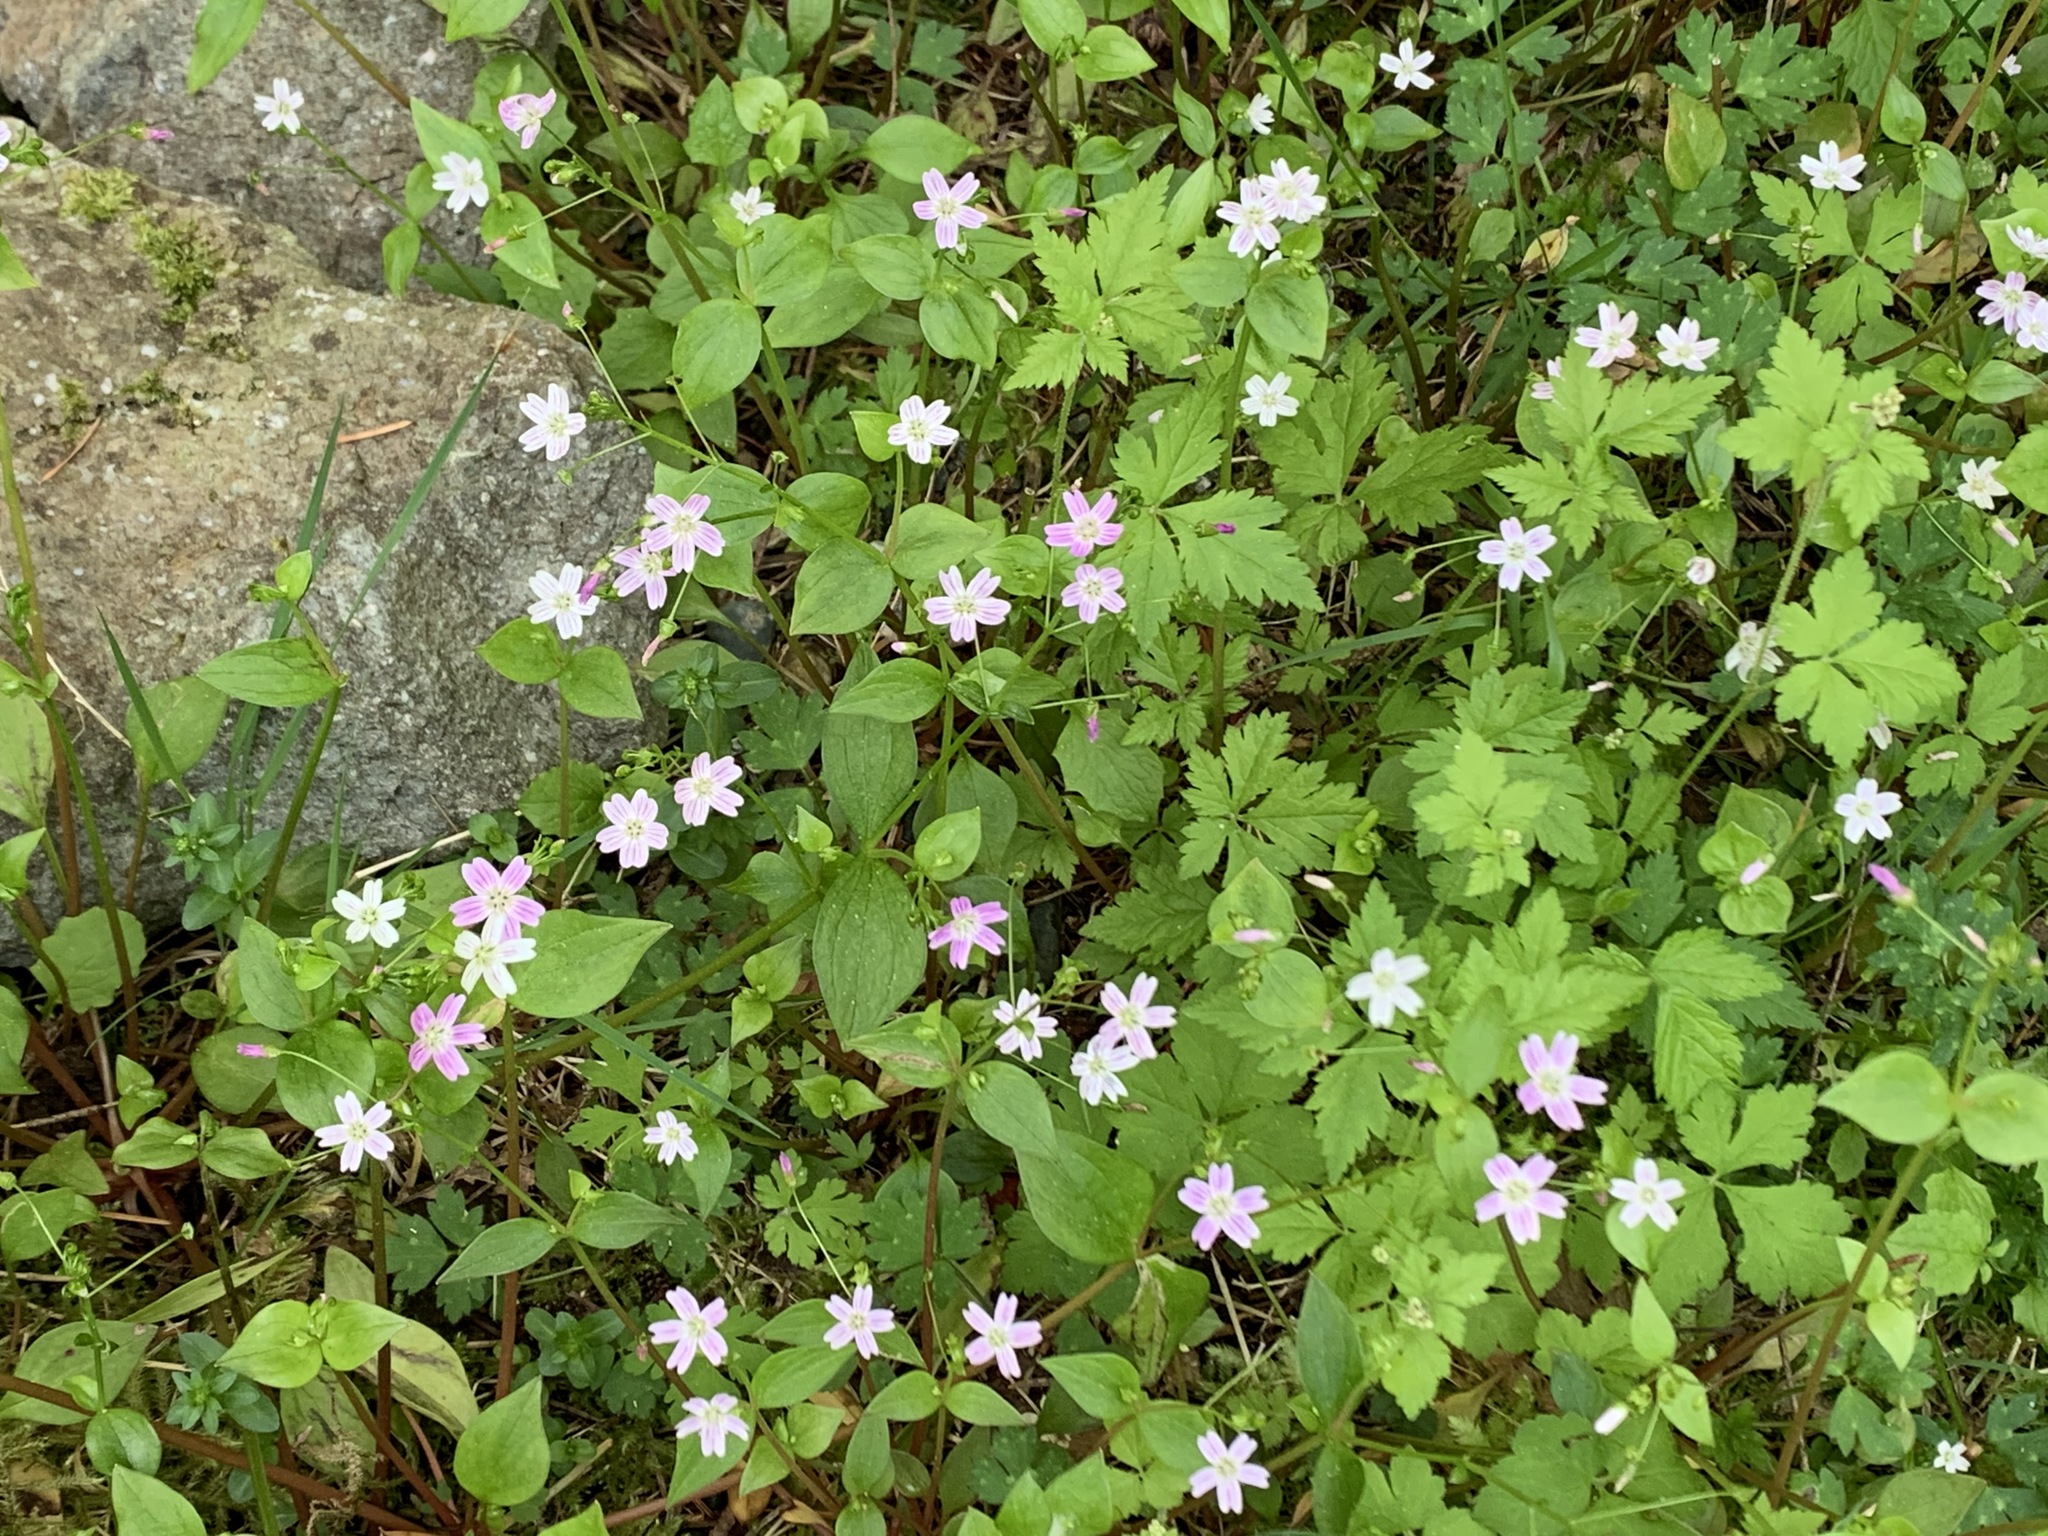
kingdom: Plantae
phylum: Tracheophyta
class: Magnoliopsida
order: Caryophyllales
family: Montiaceae
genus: Claytonia
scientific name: Claytonia sibirica
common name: Pink purslane
